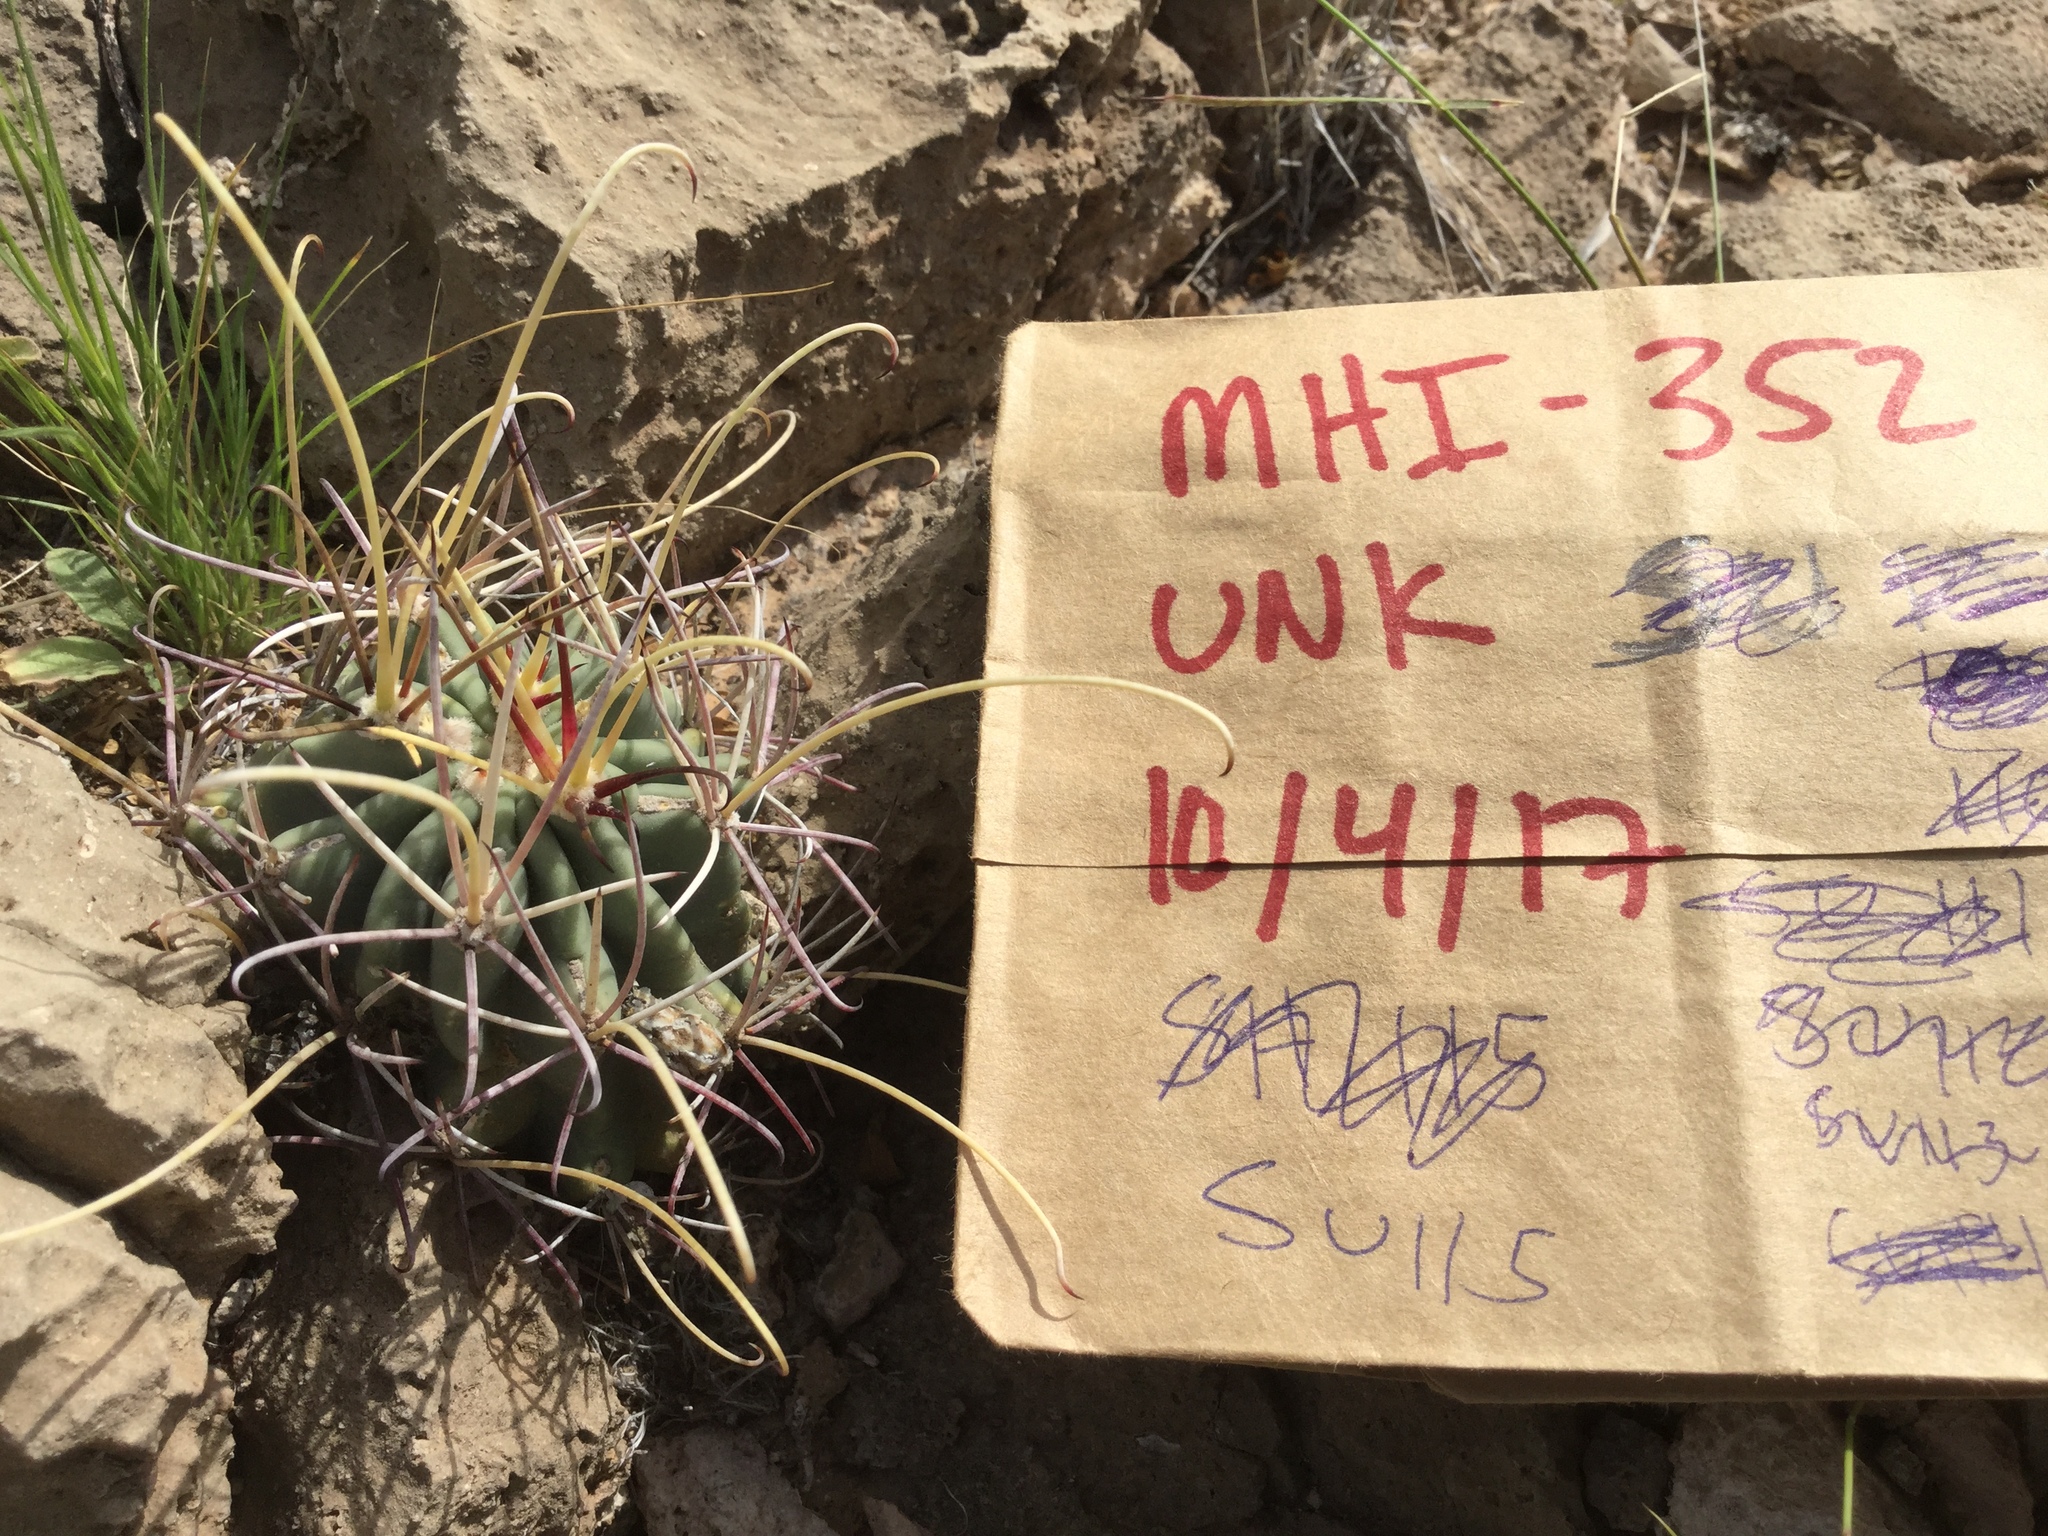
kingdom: Plantae
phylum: Tracheophyta
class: Magnoliopsida
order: Caryophyllales
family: Cactaceae
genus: Ferocactus
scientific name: Ferocactus uncinatus
